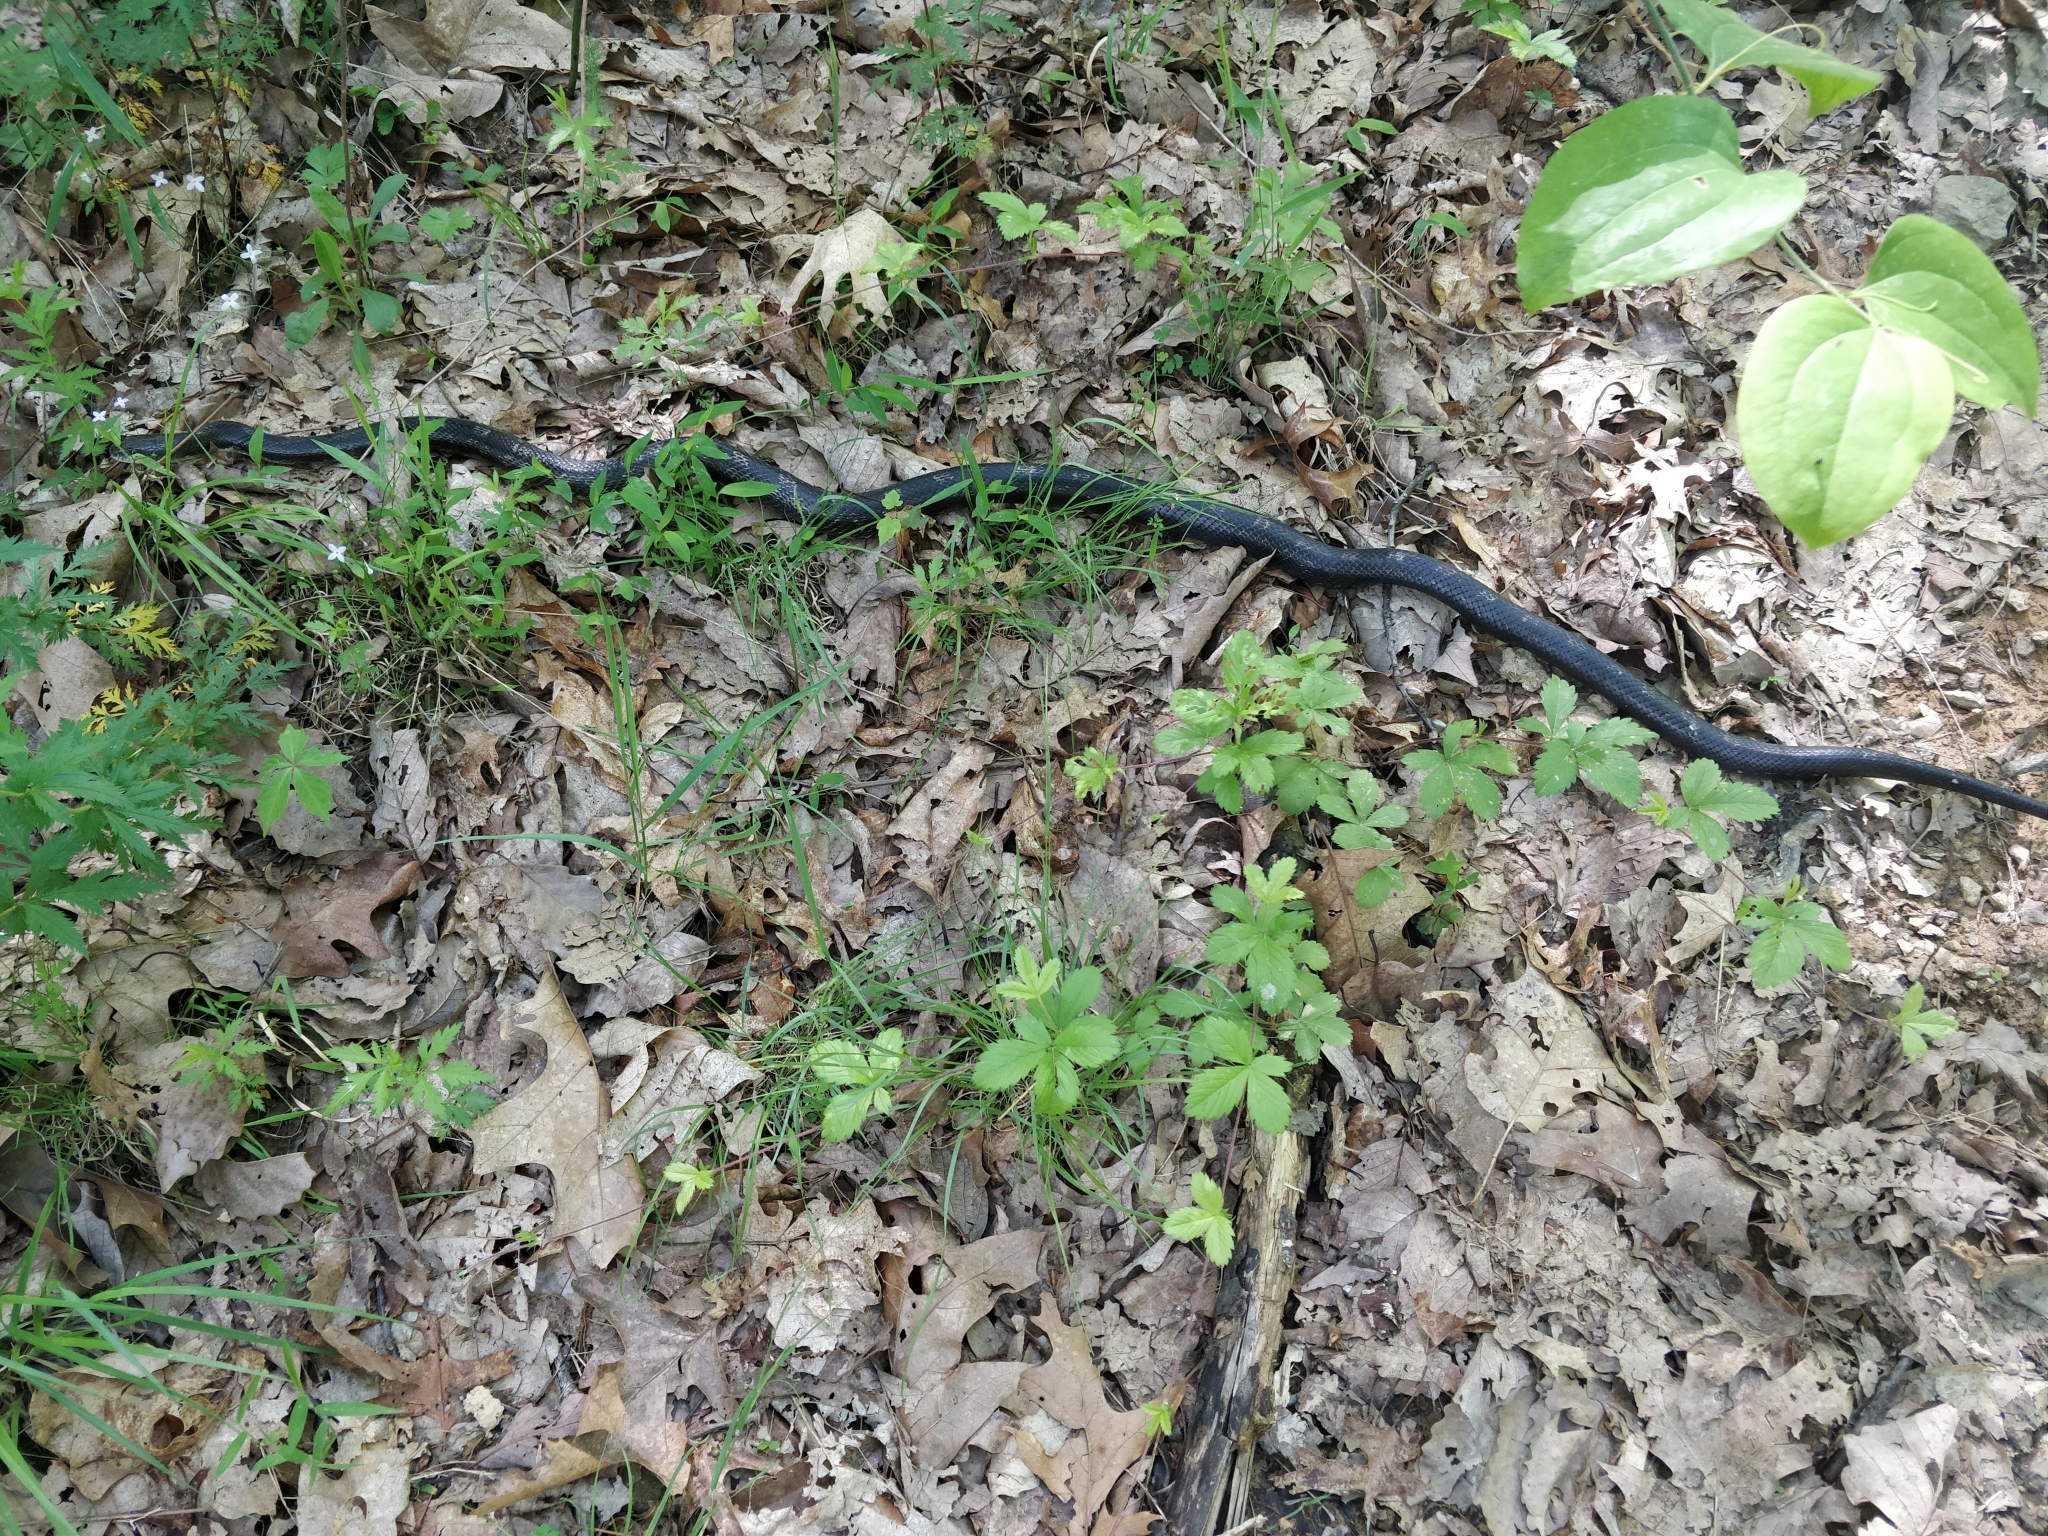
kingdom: Animalia
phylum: Chordata
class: Squamata
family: Colubridae
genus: Pantherophis
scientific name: Pantherophis spiloides
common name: Gray rat snake
